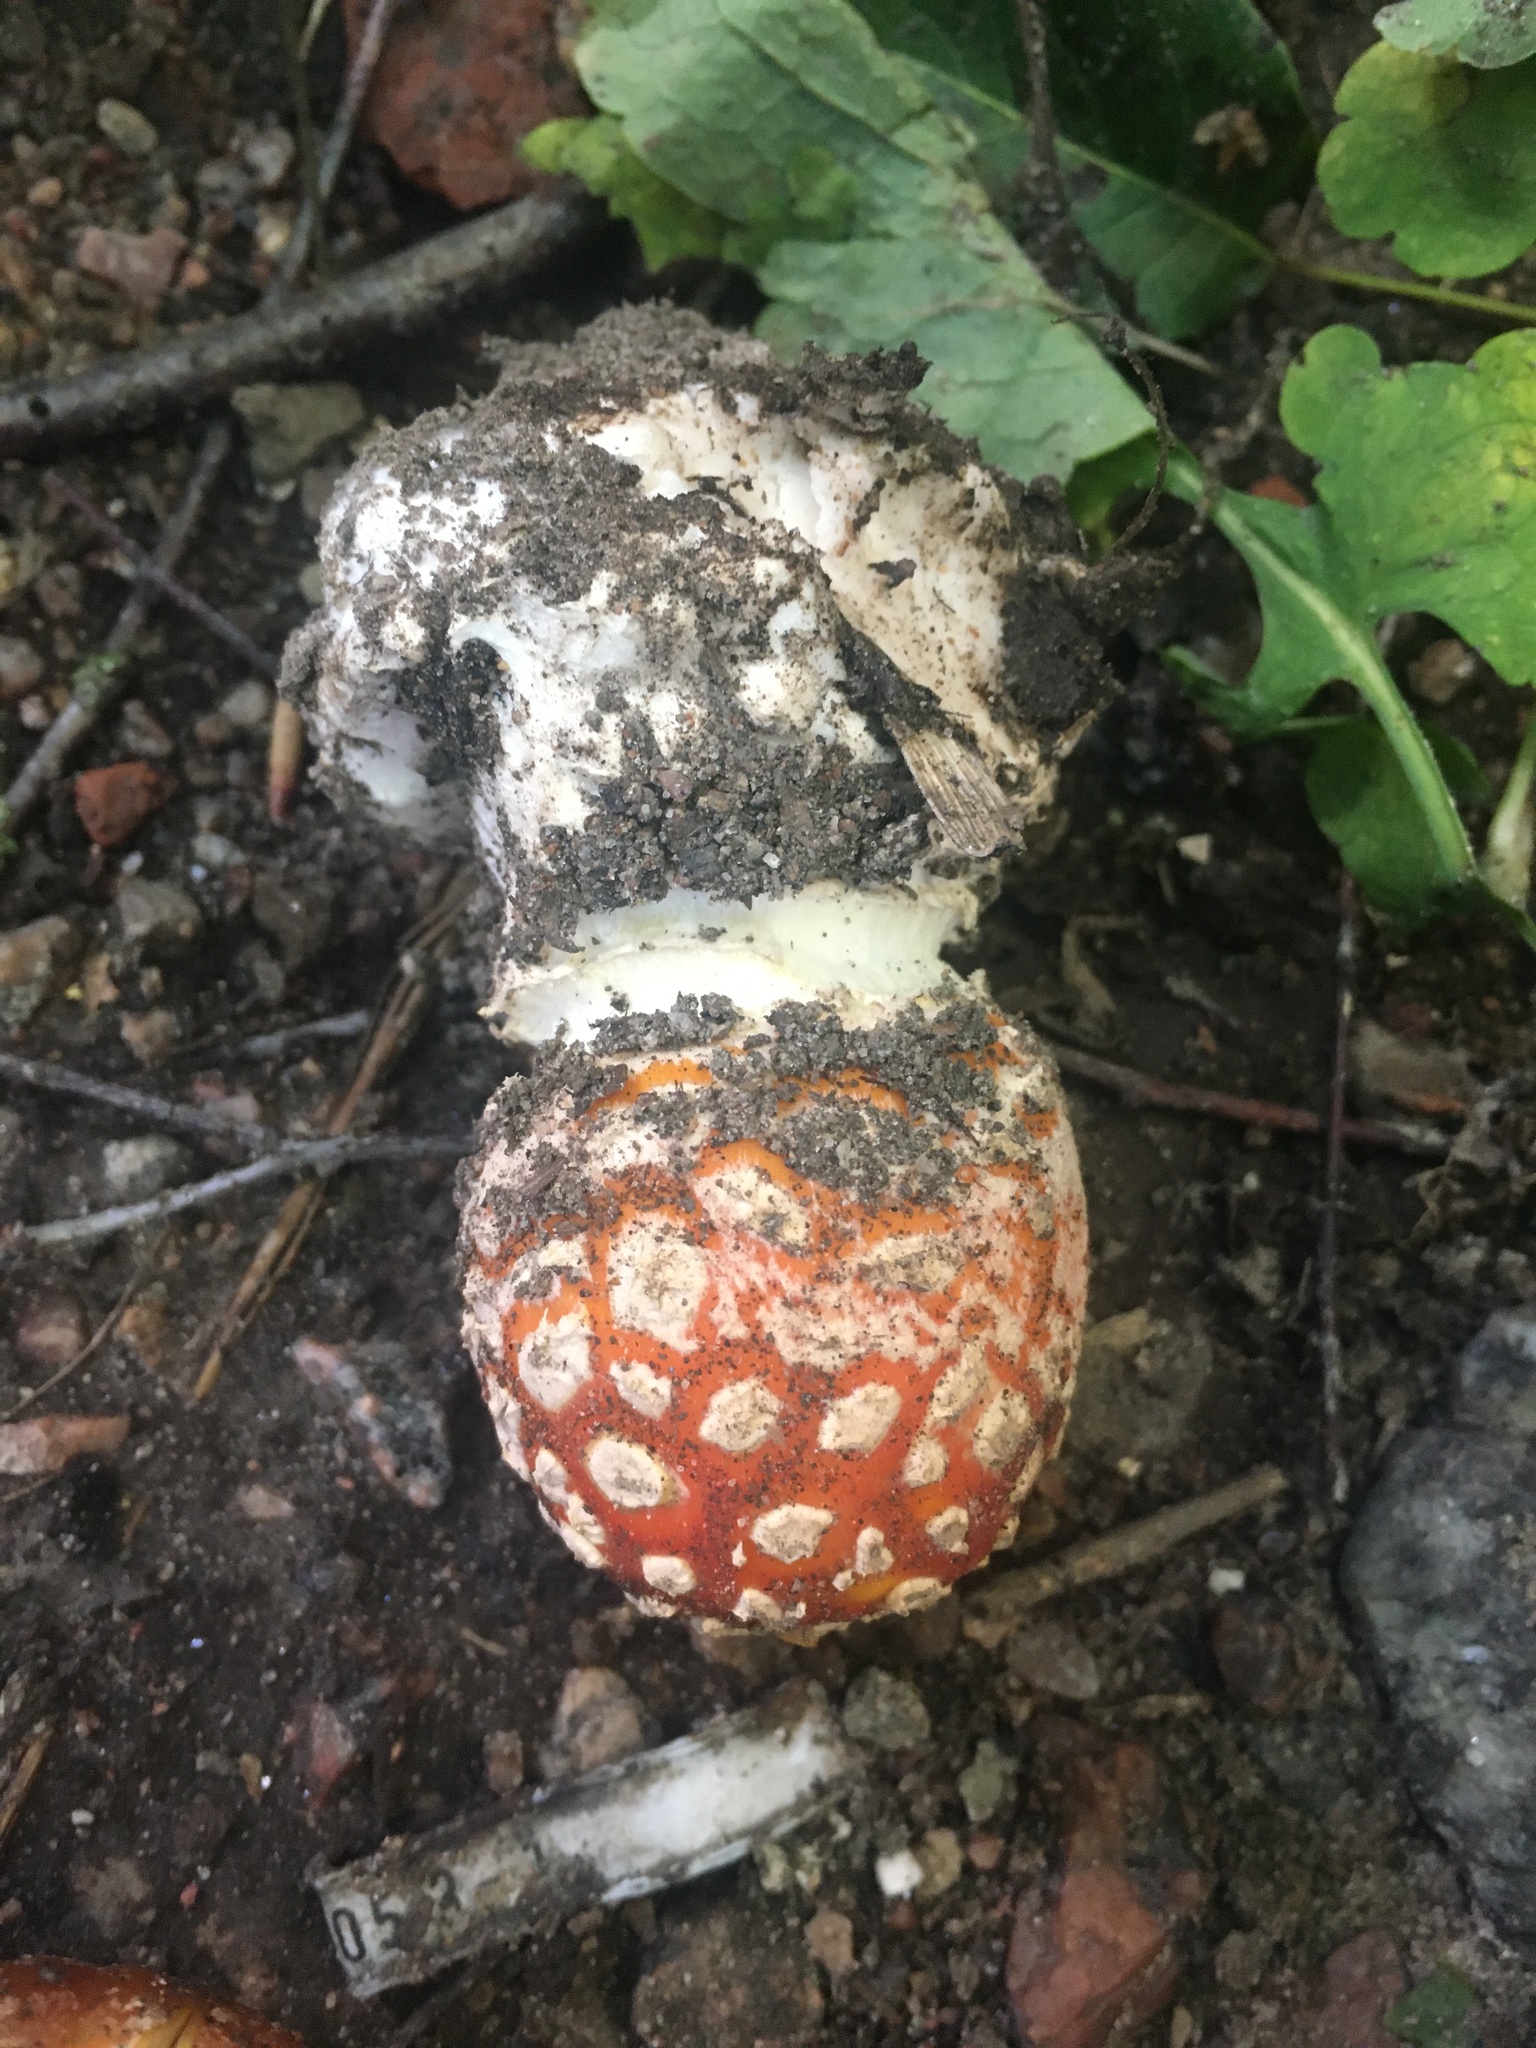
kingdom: Fungi
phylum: Basidiomycota
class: Agaricomycetes
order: Agaricales
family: Amanitaceae
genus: Amanita
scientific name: Amanita muscaria
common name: Fly agaric
